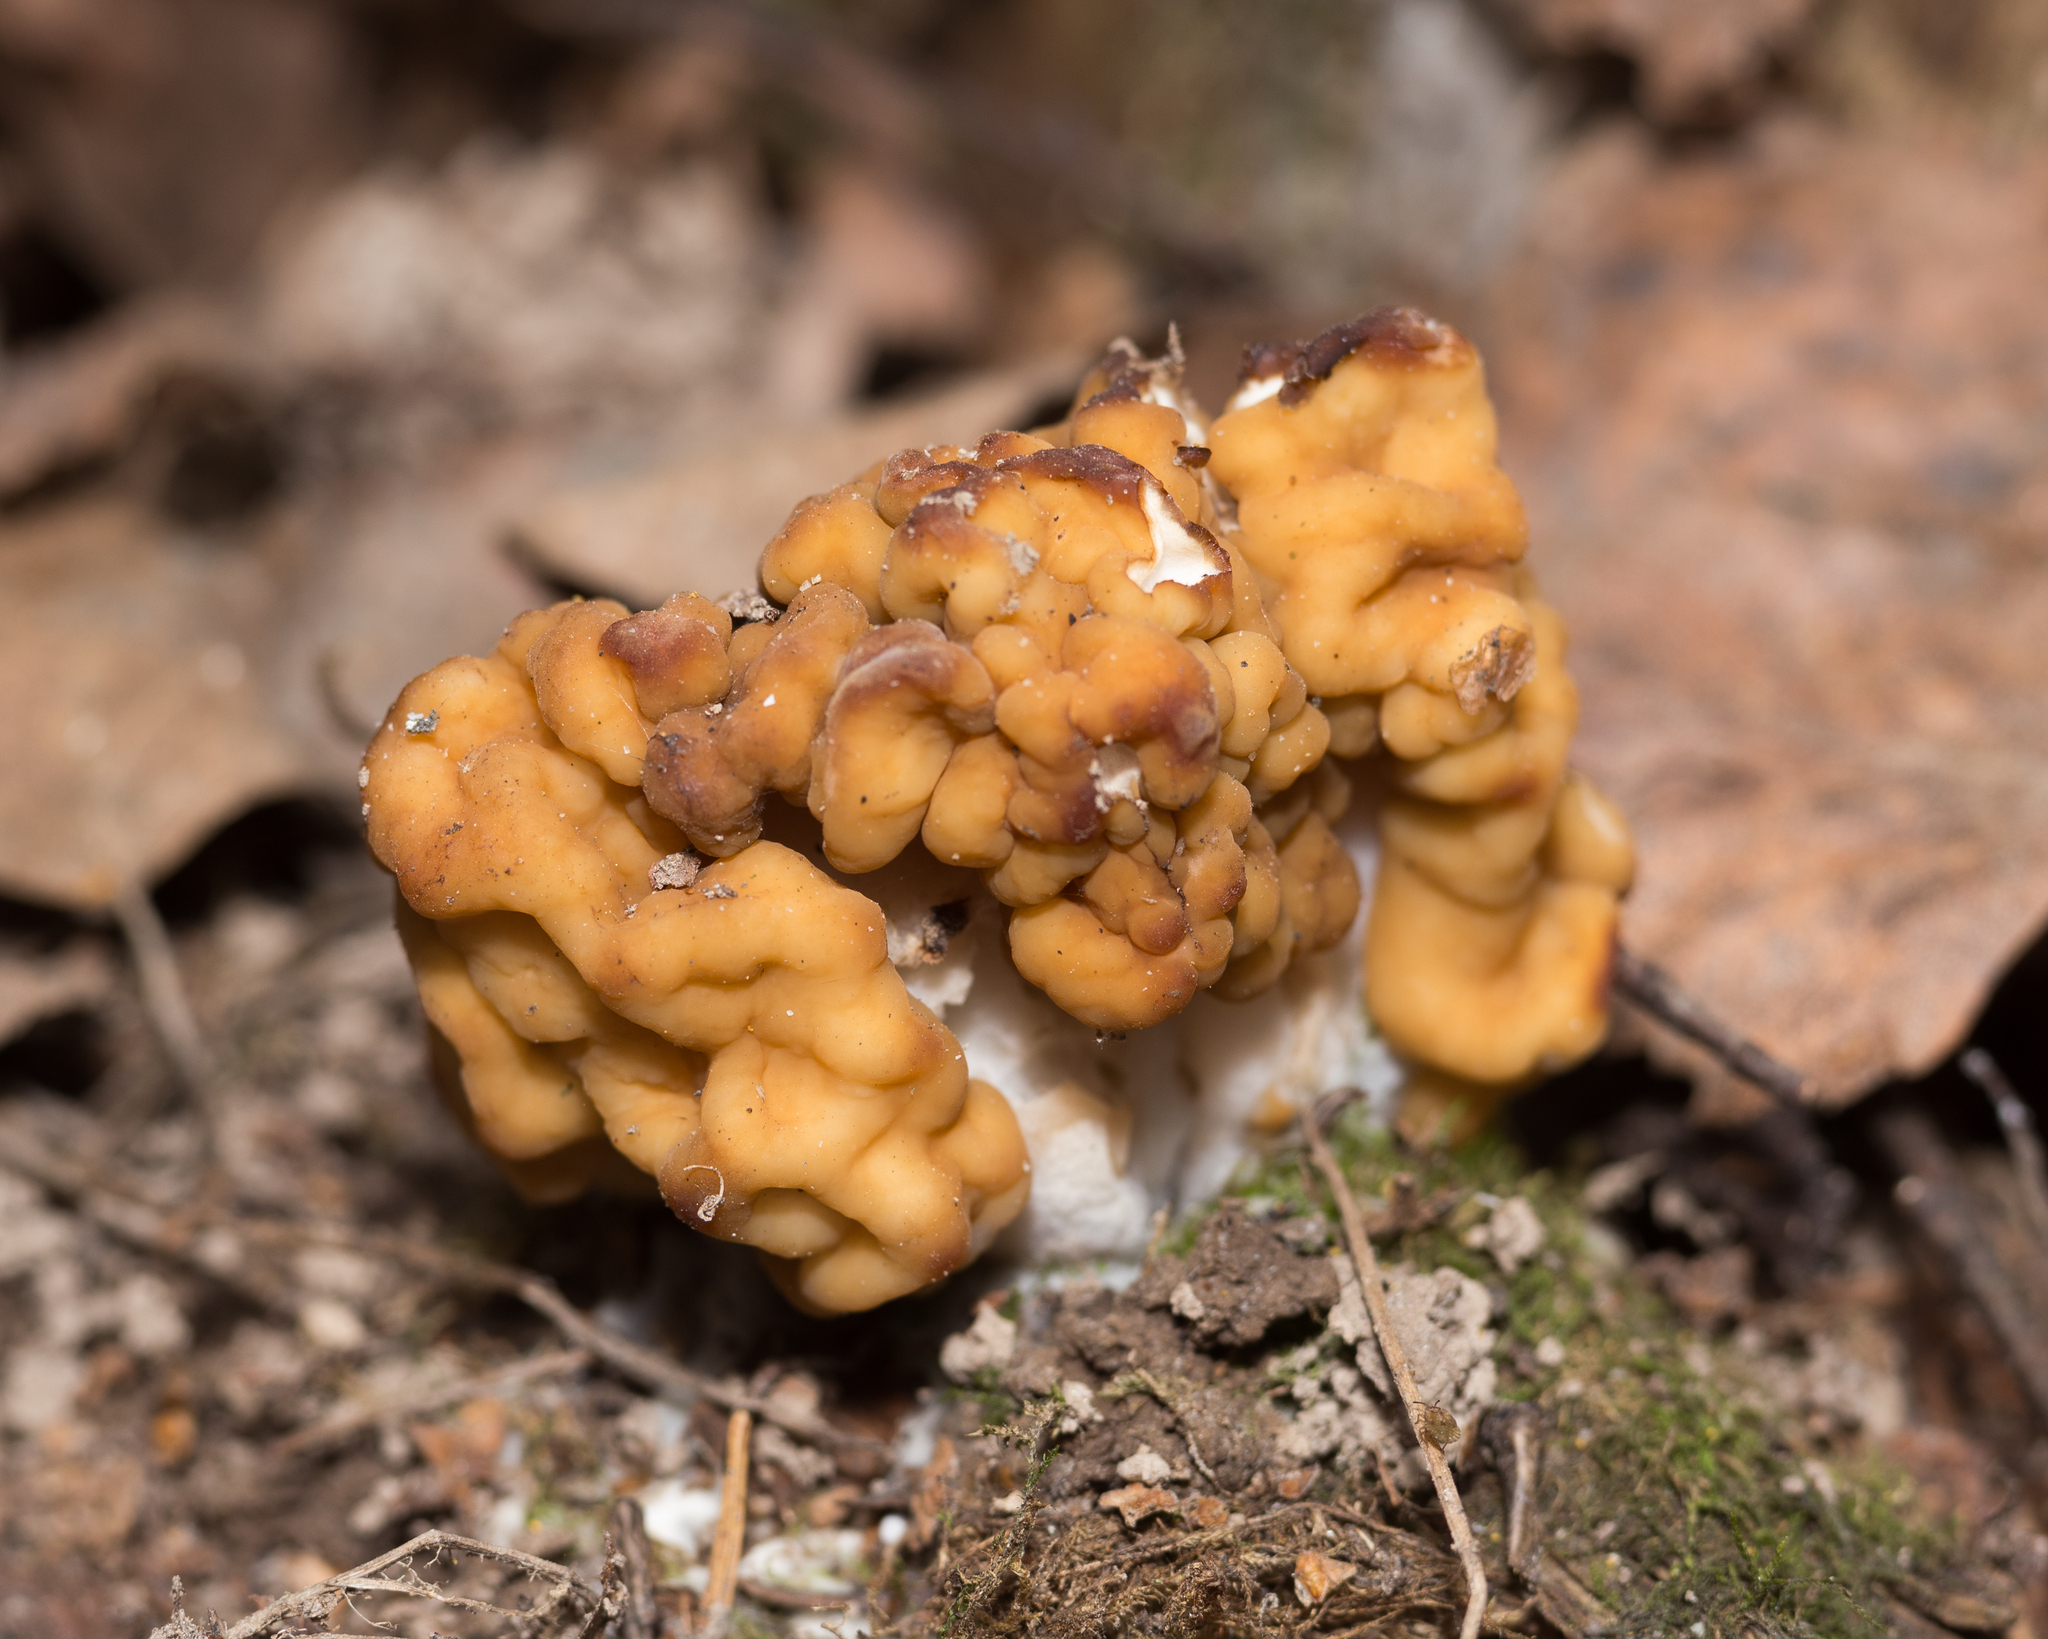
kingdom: Fungi
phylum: Ascomycota
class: Pezizomycetes
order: Pezizales
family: Discinaceae
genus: Gyromitra
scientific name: Gyromitra gigas
